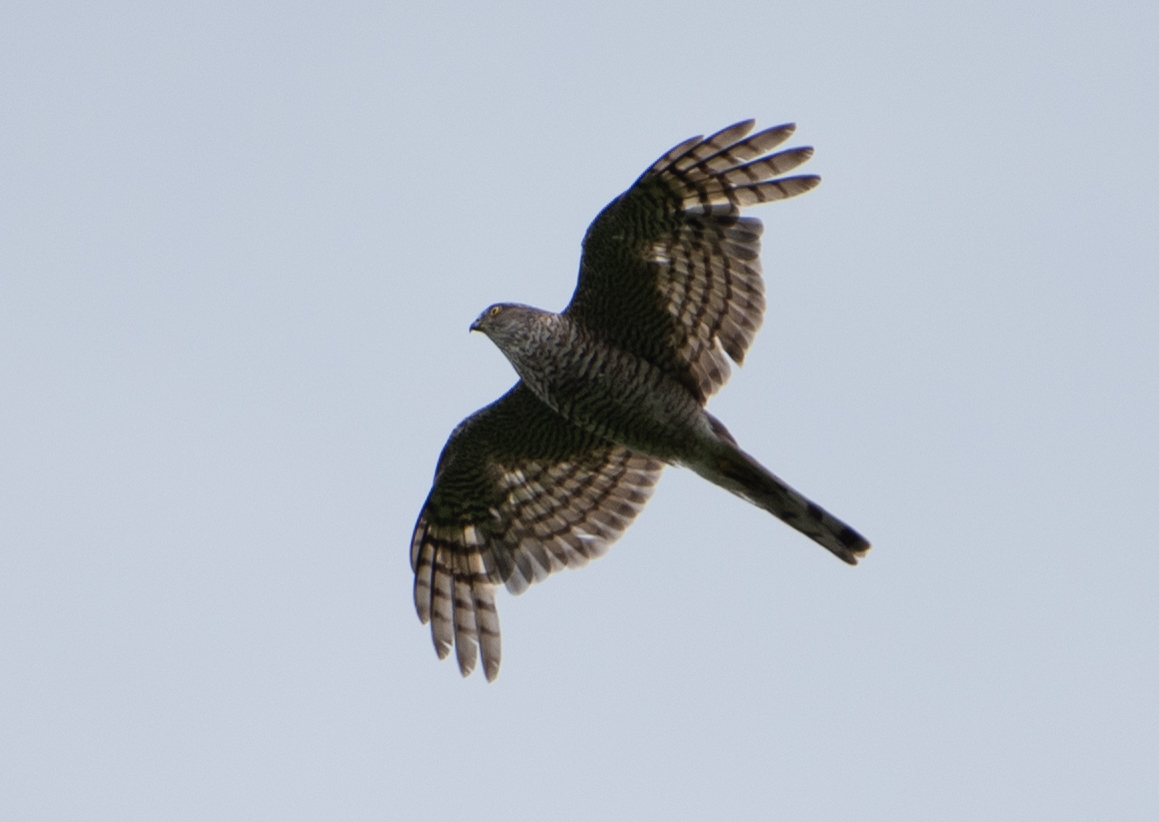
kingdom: Animalia
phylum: Chordata
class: Aves
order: Accipitriformes
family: Accipitridae
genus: Accipiter
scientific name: Accipiter nisus
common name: Eurasian sparrowhawk
